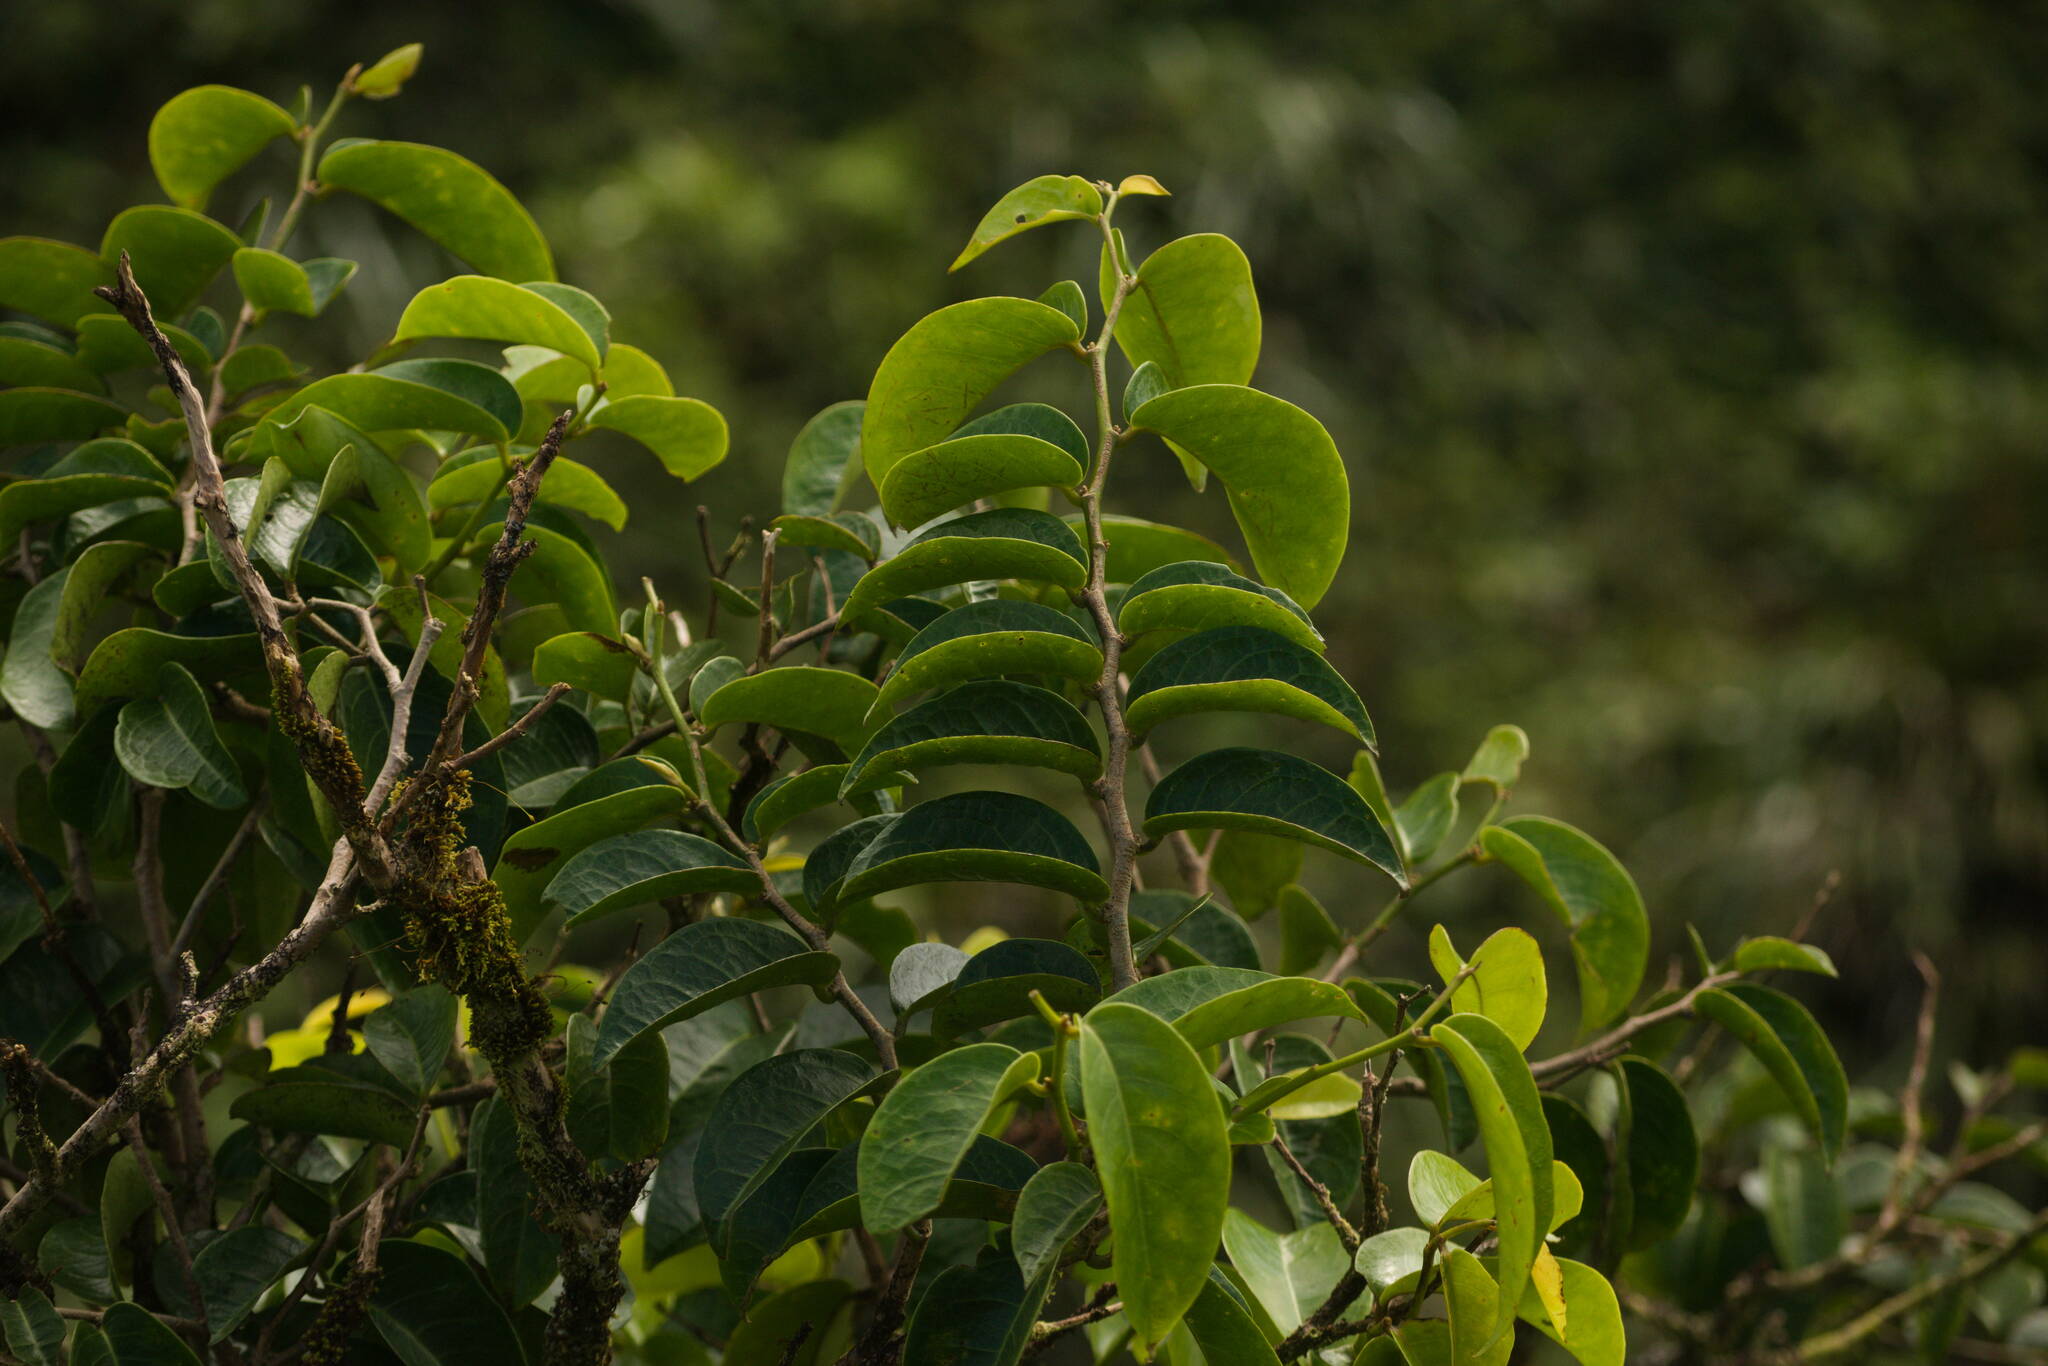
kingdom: Plantae
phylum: Tracheophyta
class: Magnoliopsida
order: Malpighiales
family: Phyllanthaceae
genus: Antidesma
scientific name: Antidesma platyphyllum
